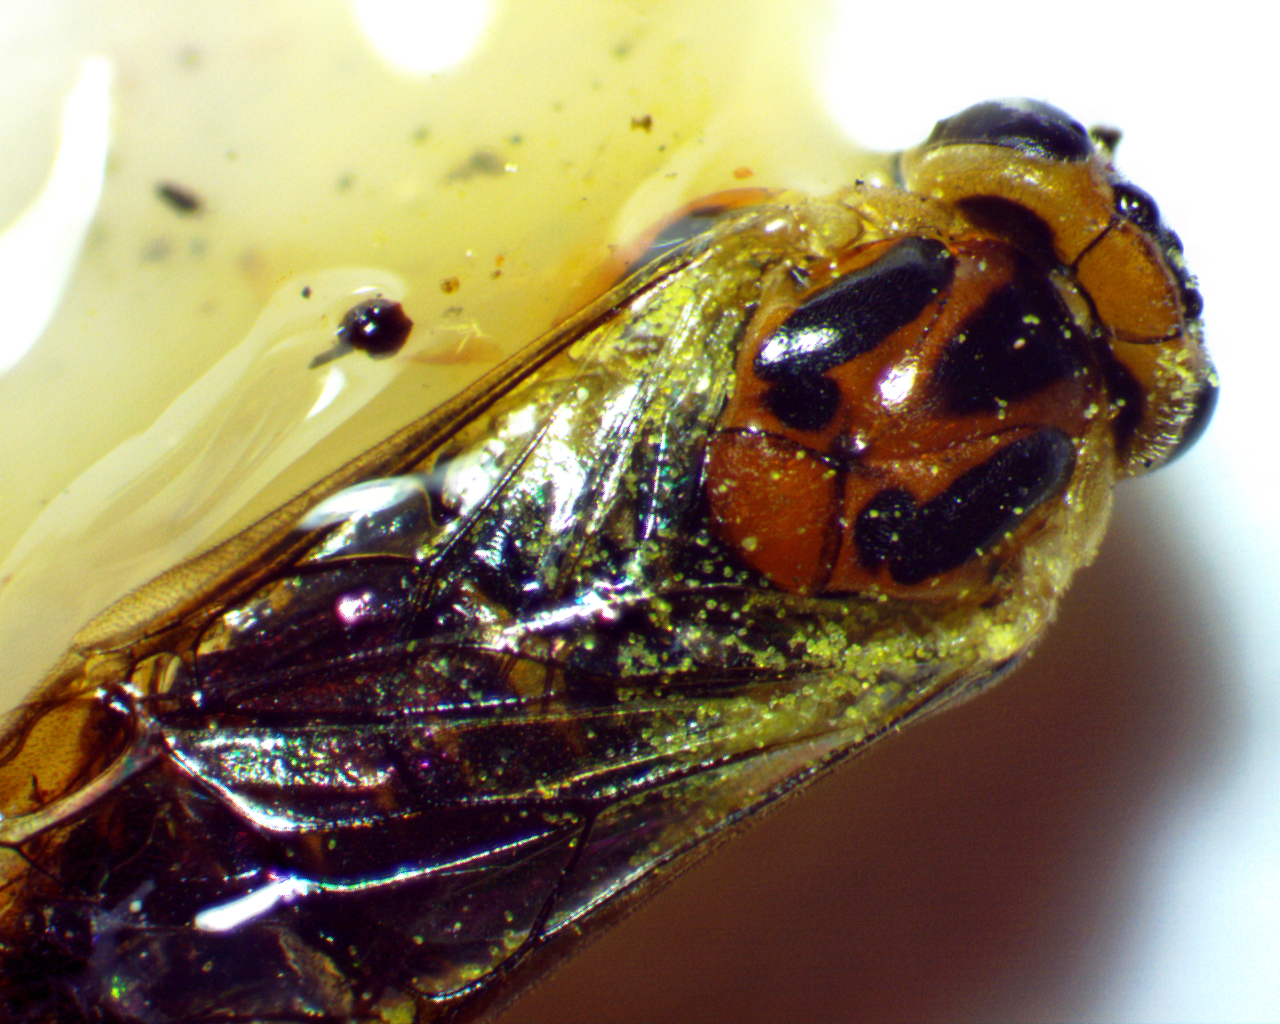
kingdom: Animalia
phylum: Arthropoda
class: Insecta
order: Hymenoptera
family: Tenthredinidae
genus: Pristiphora
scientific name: Pristiphora chlorea
